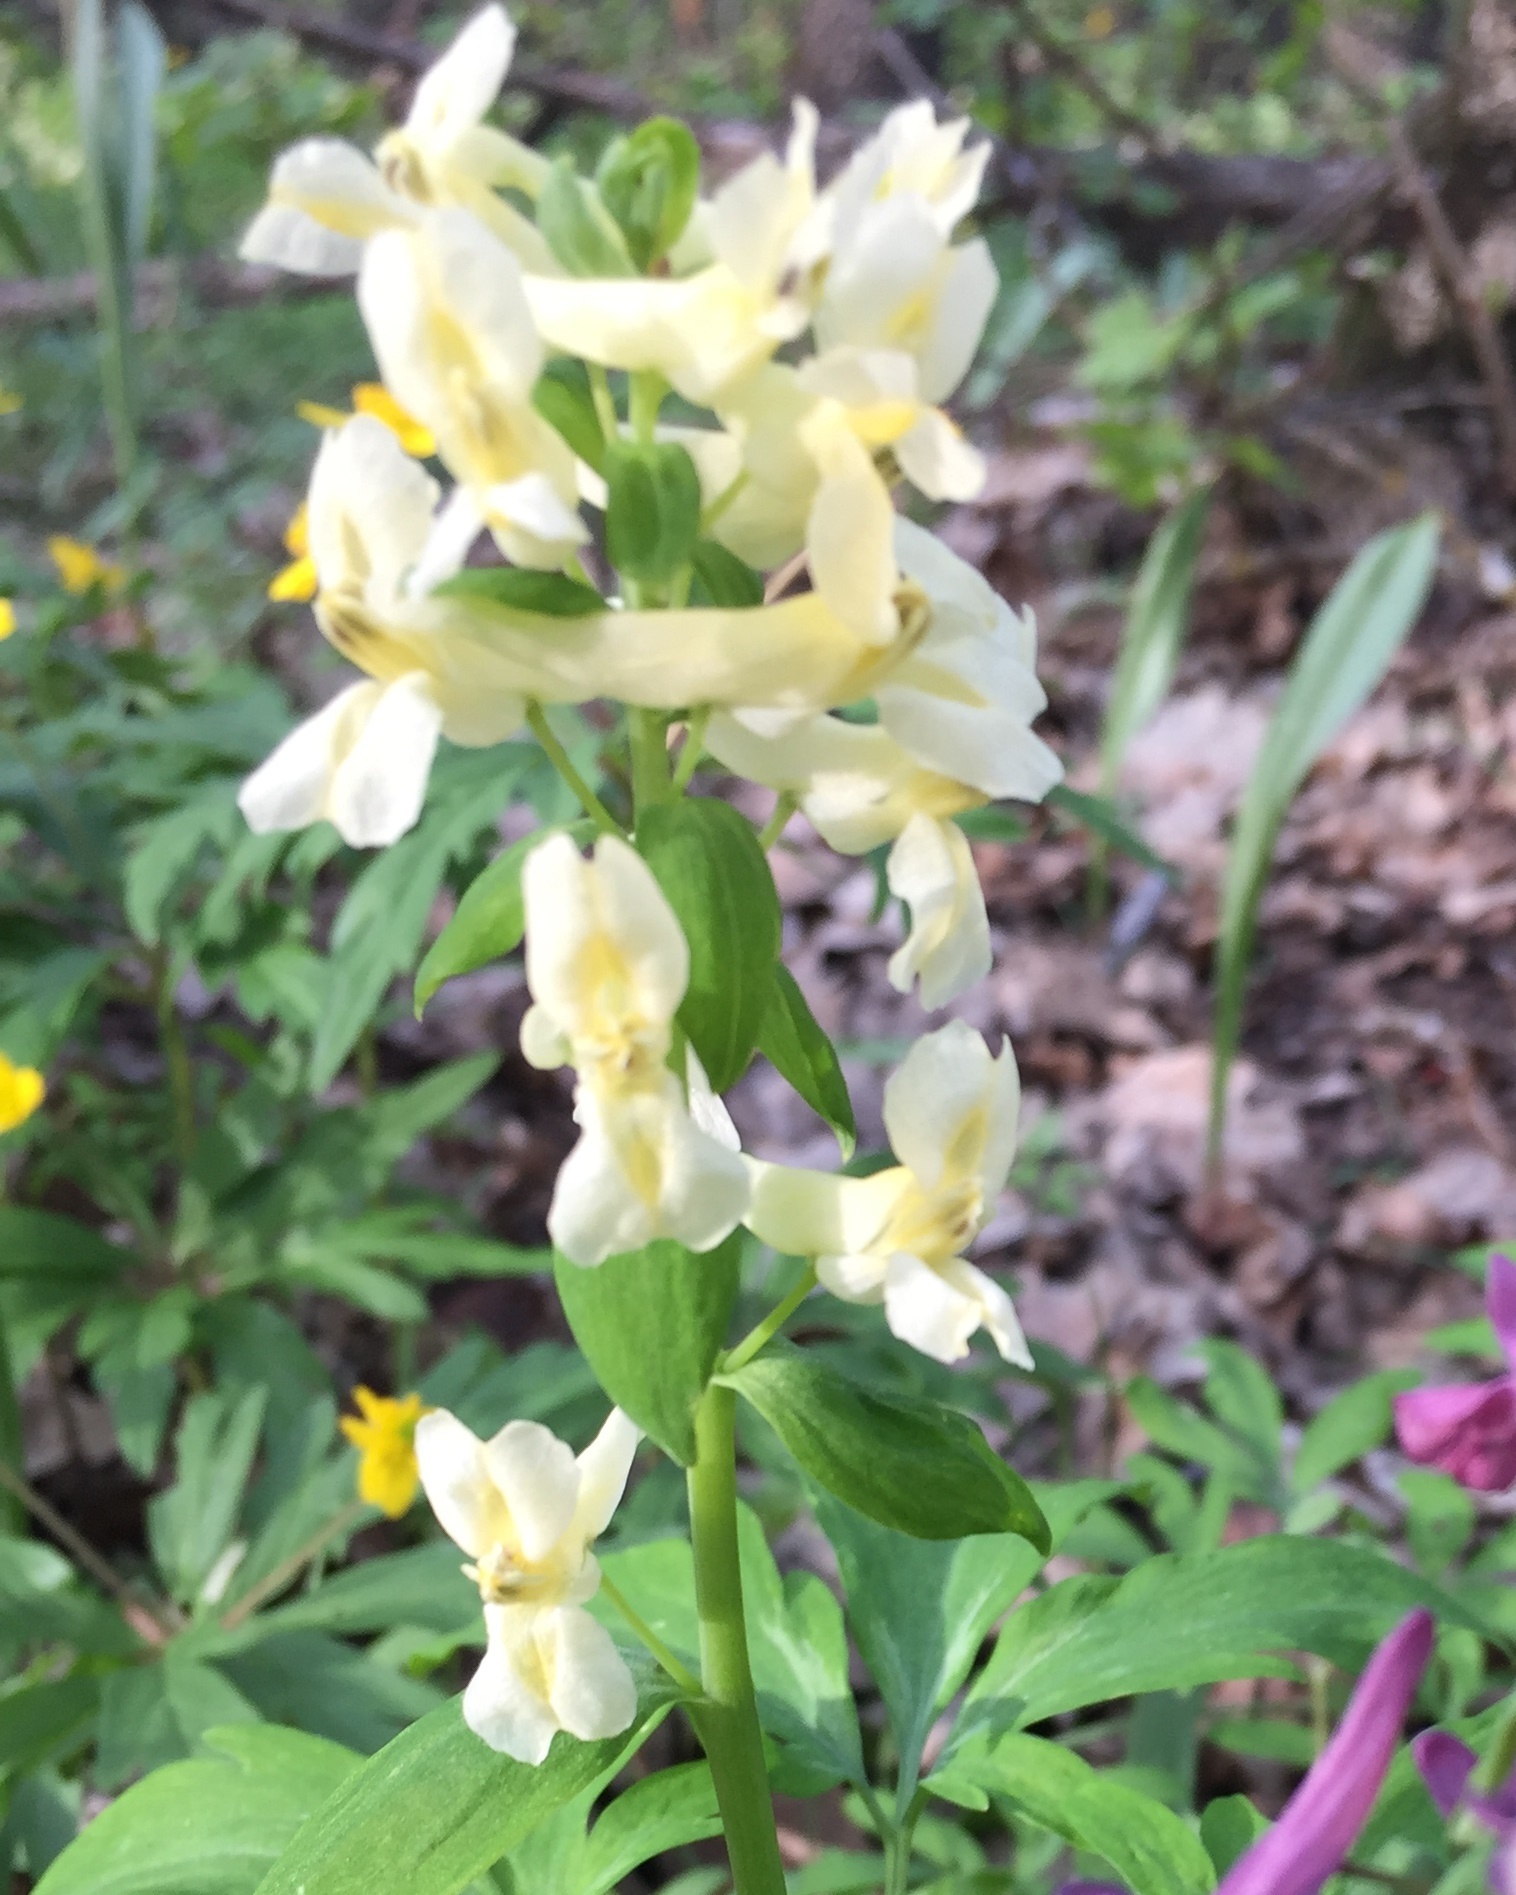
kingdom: Plantae
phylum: Tracheophyta
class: Magnoliopsida
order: Ranunculales
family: Papaveraceae
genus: Corydalis
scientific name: Corydalis cava
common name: Hollowroot
